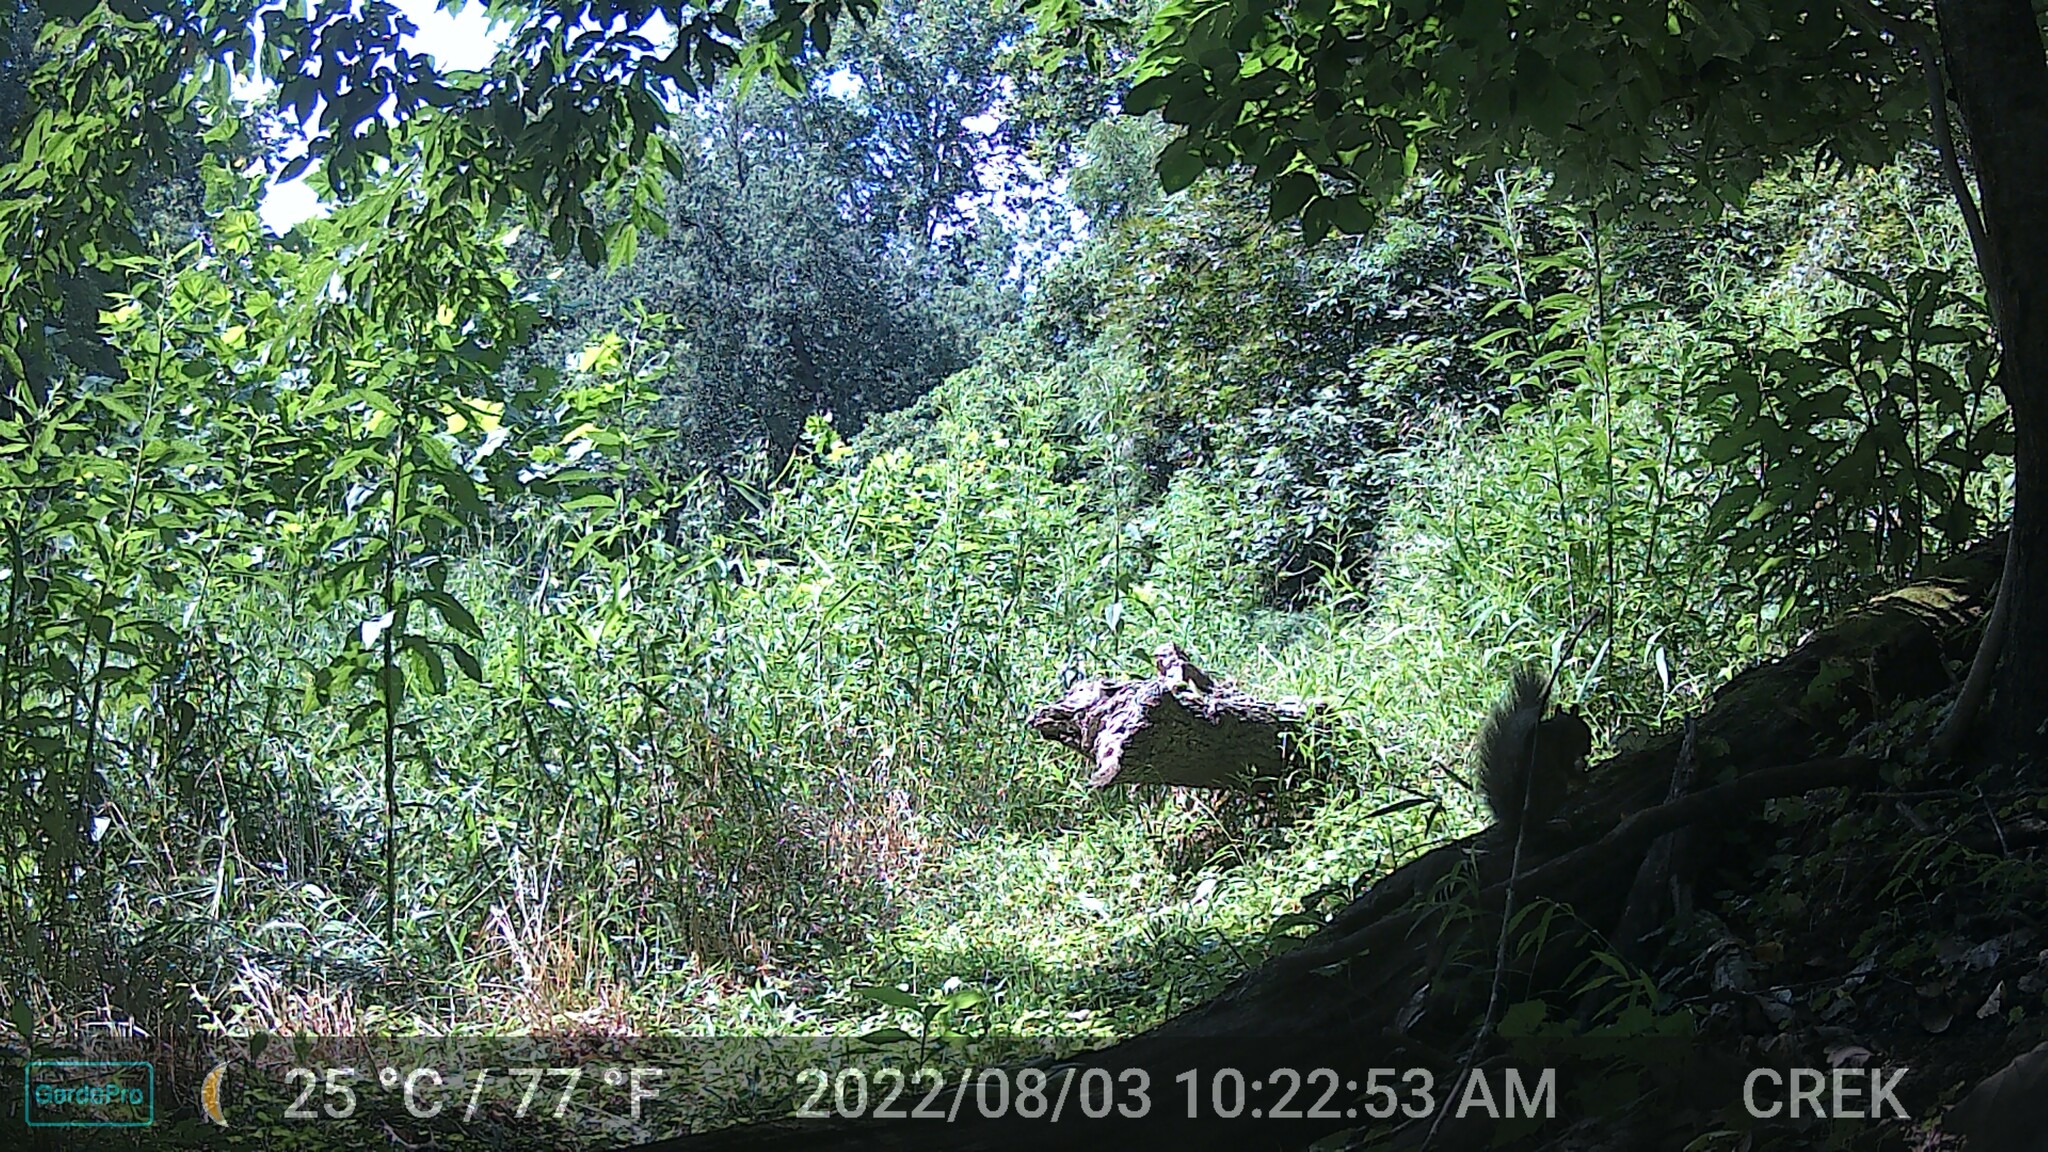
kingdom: Animalia
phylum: Chordata
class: Mammalia
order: Rodentia
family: Sciuridae
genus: Sciurus
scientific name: Sciurus carolinensis
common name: Eastern gray squirrel
